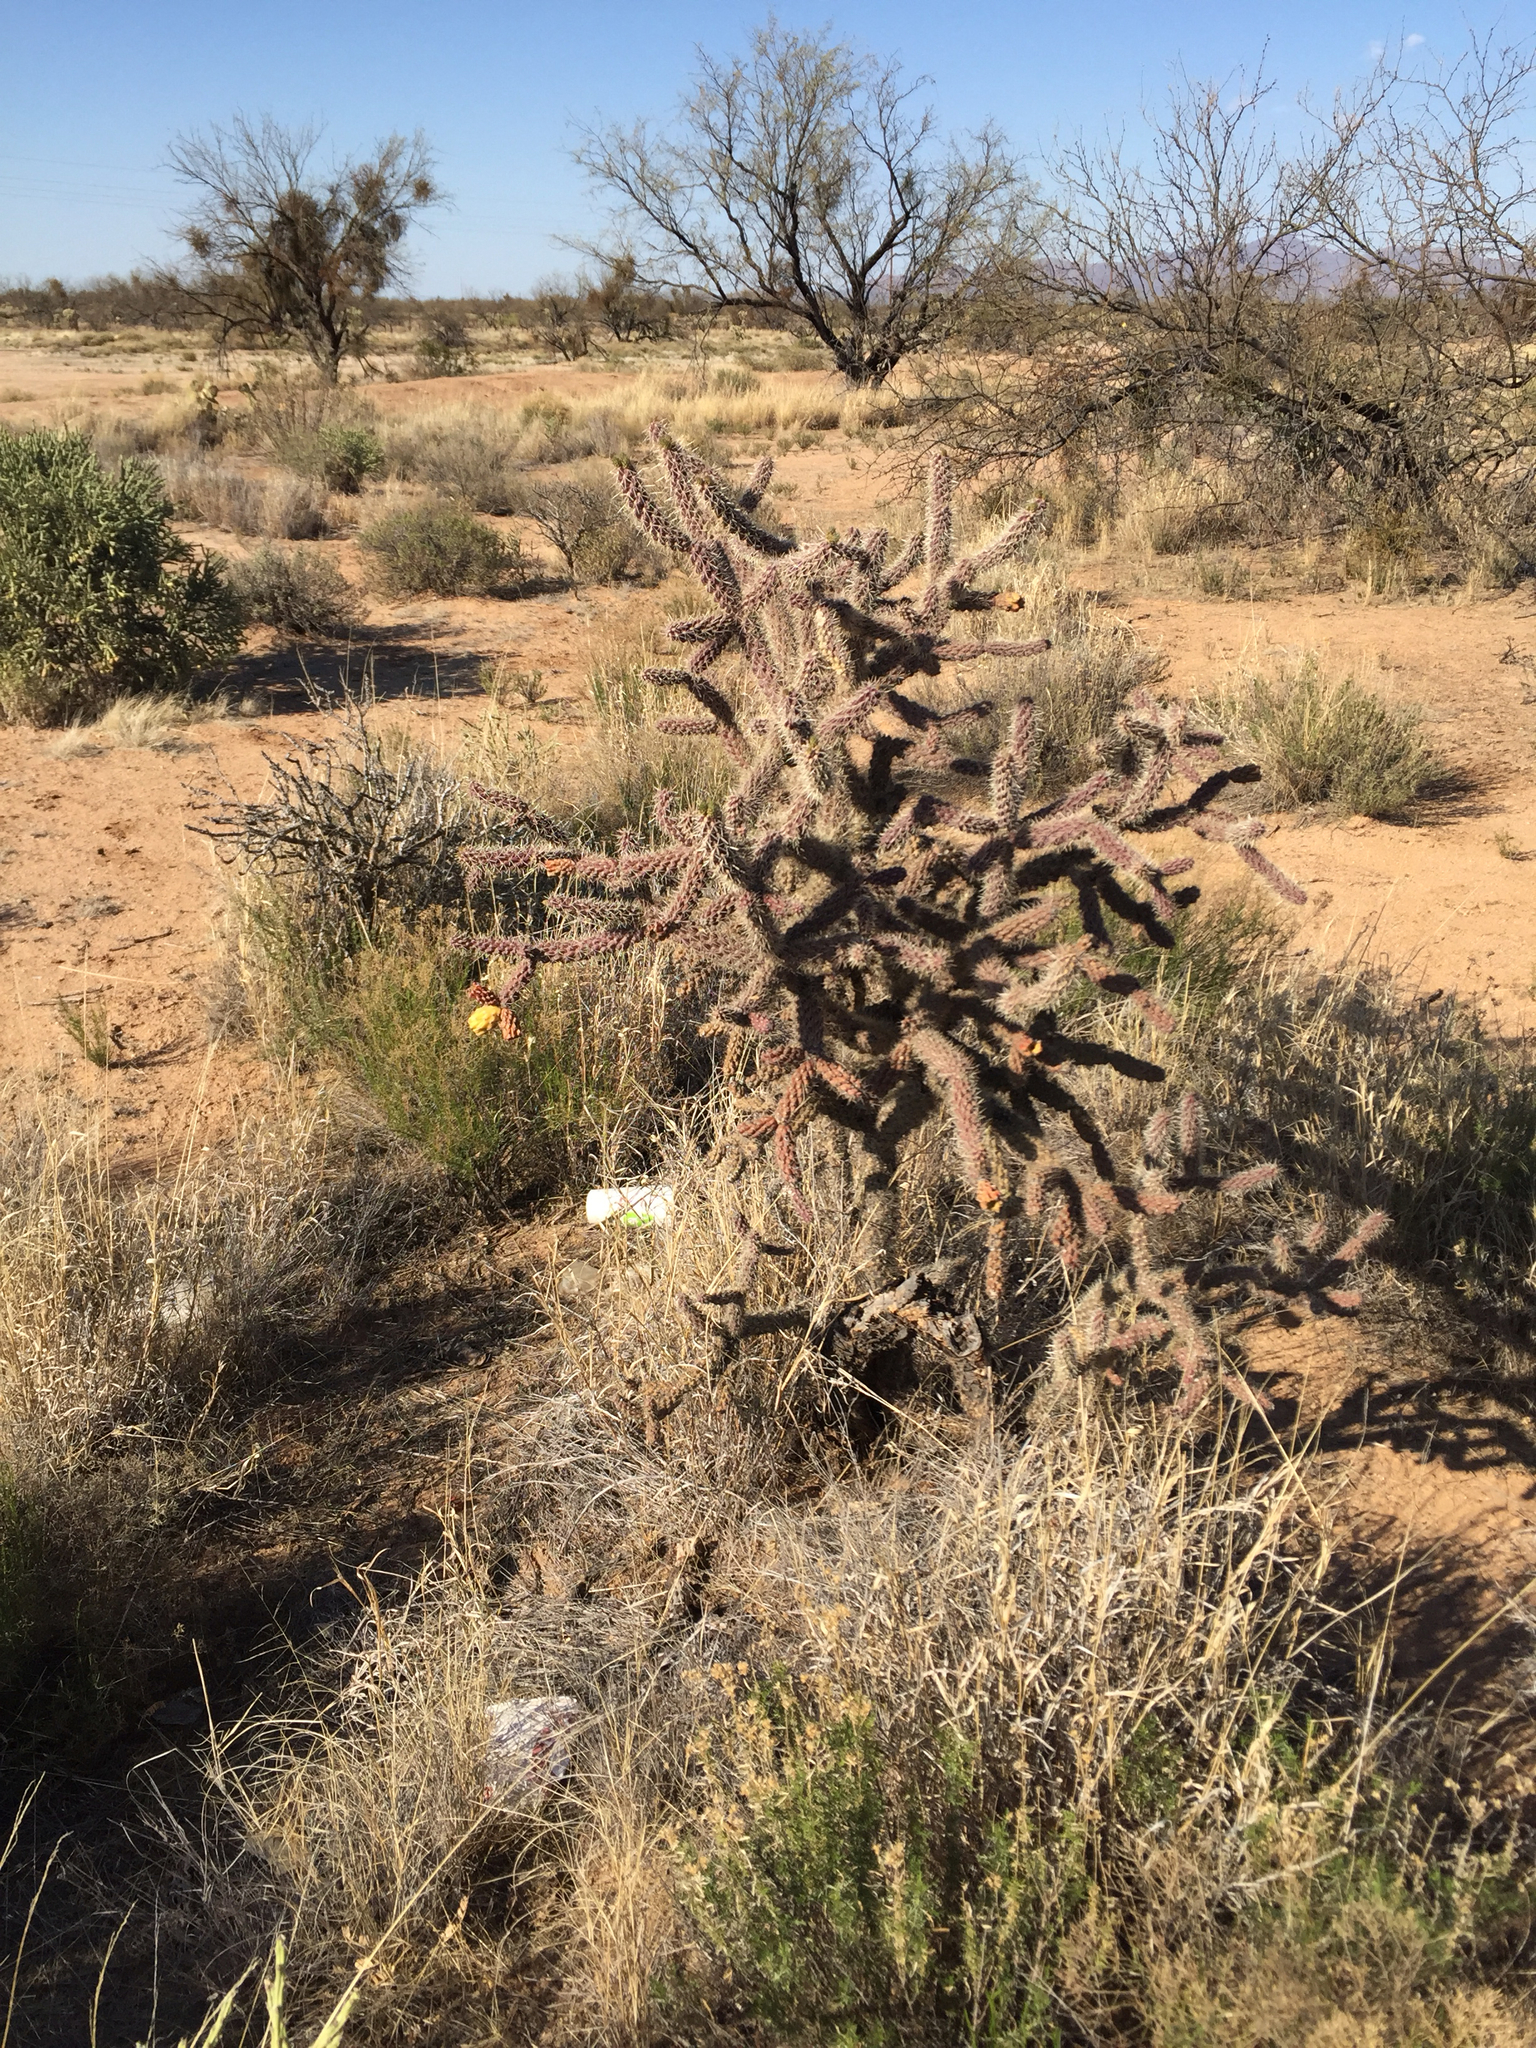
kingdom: Plantae
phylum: Tracheophyta
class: Magnoliopsida
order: Caryophyllales
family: Cactaceae
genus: Cylindropuntia
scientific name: Cylindropuntia imbricata
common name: Candelabrum cactus
